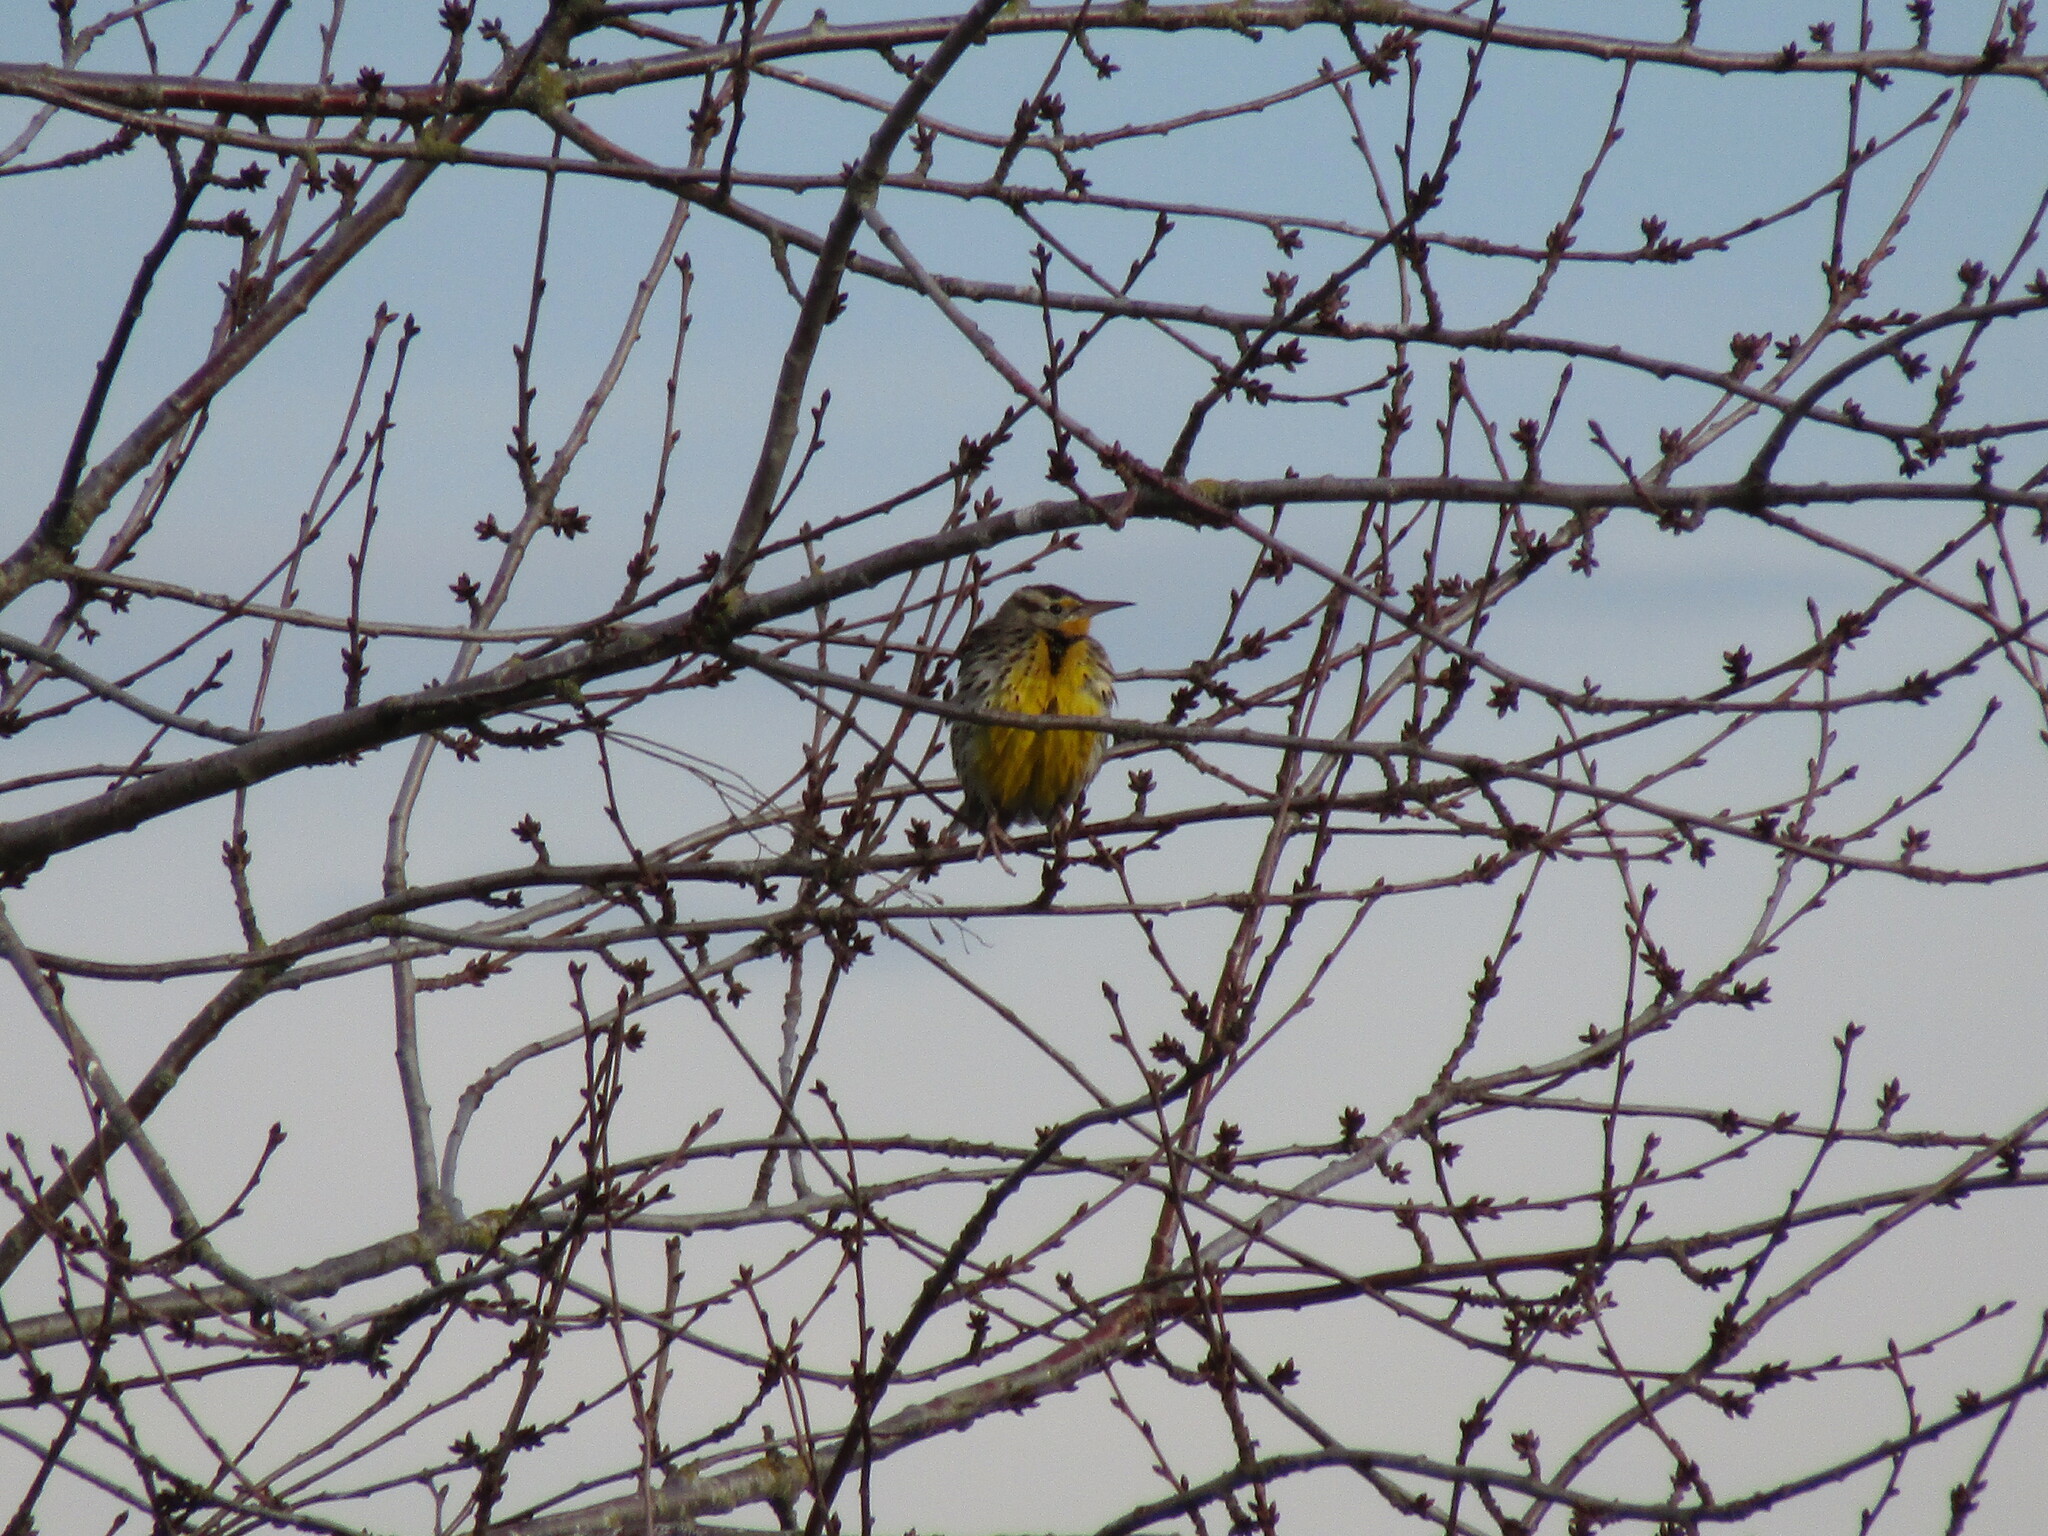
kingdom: Animalia
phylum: Chordata
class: Aves
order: Passeriformes
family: Icteridae
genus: Sturnella
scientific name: Sturnella neglecta
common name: Western meadowlark
